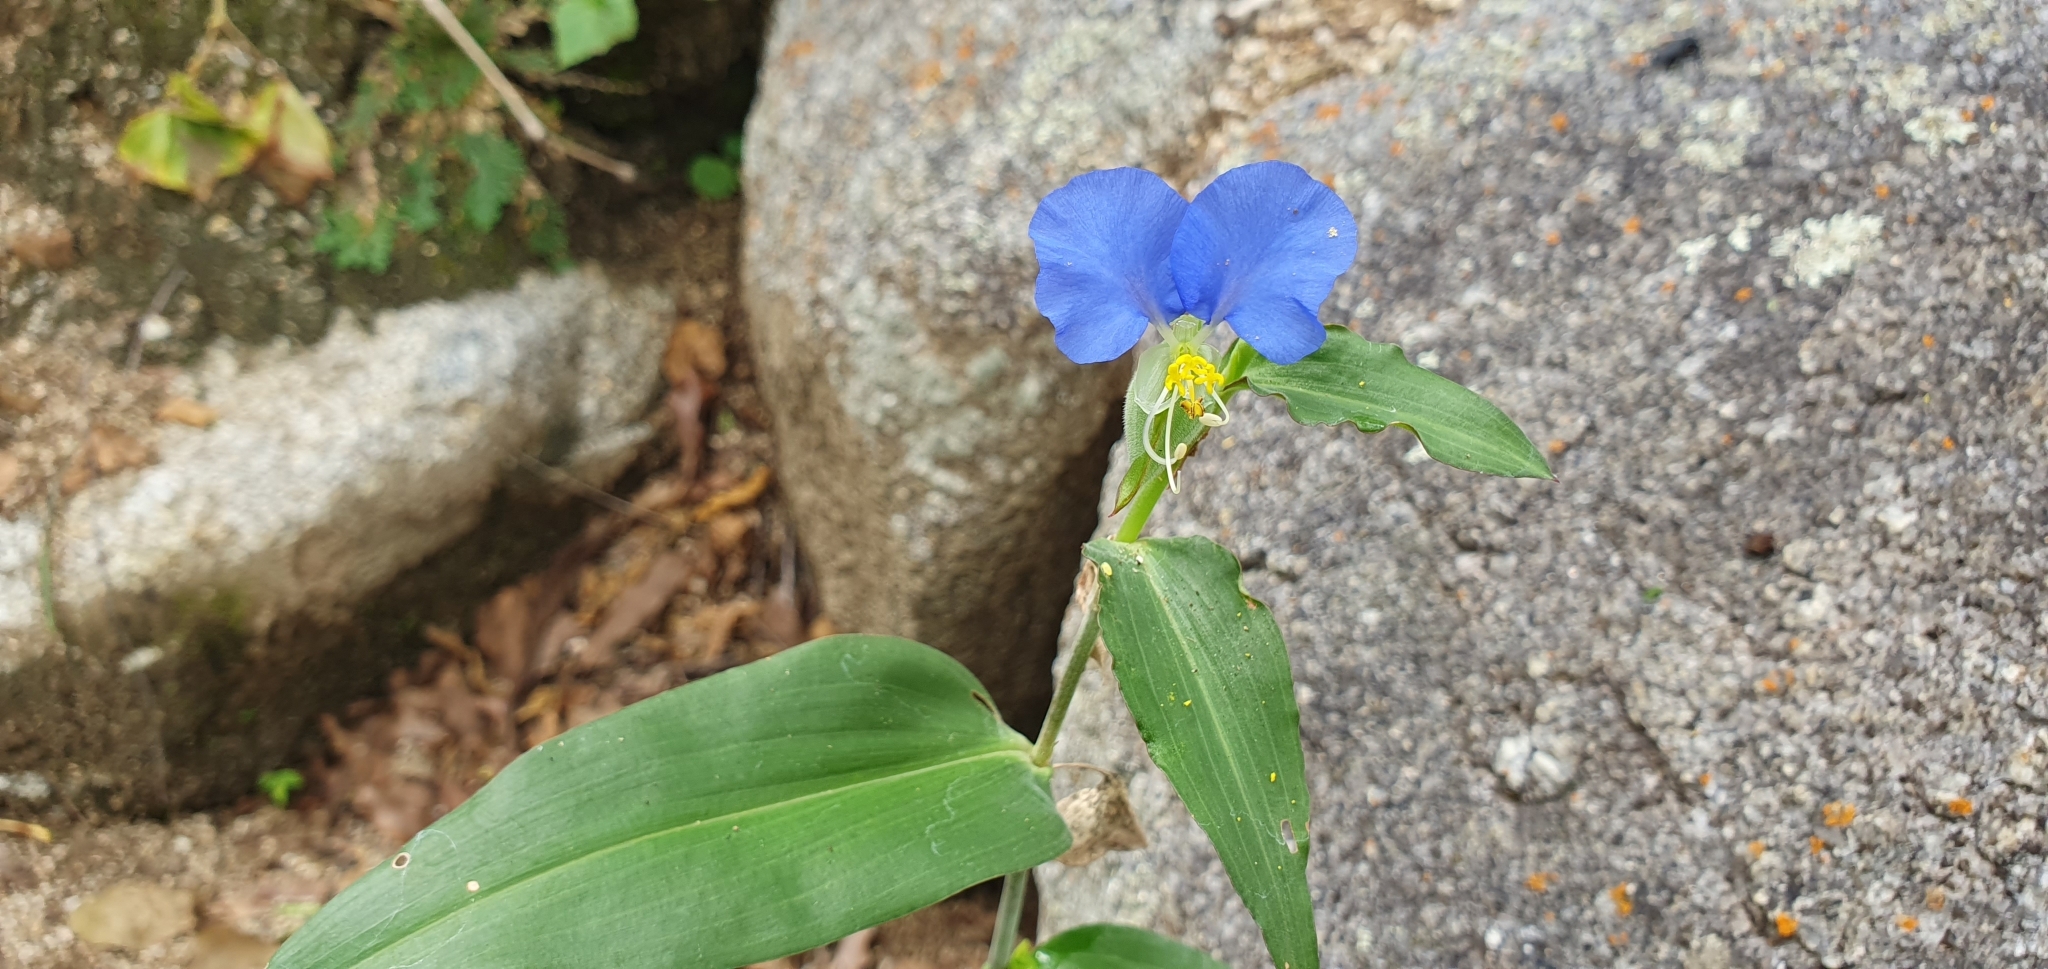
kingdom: Plantae
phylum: Tracheophyta
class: Liliopsida
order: Commelinales
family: Commelinaceae
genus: Commelina
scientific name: Commelina erecta
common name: Blousel blommetjie
